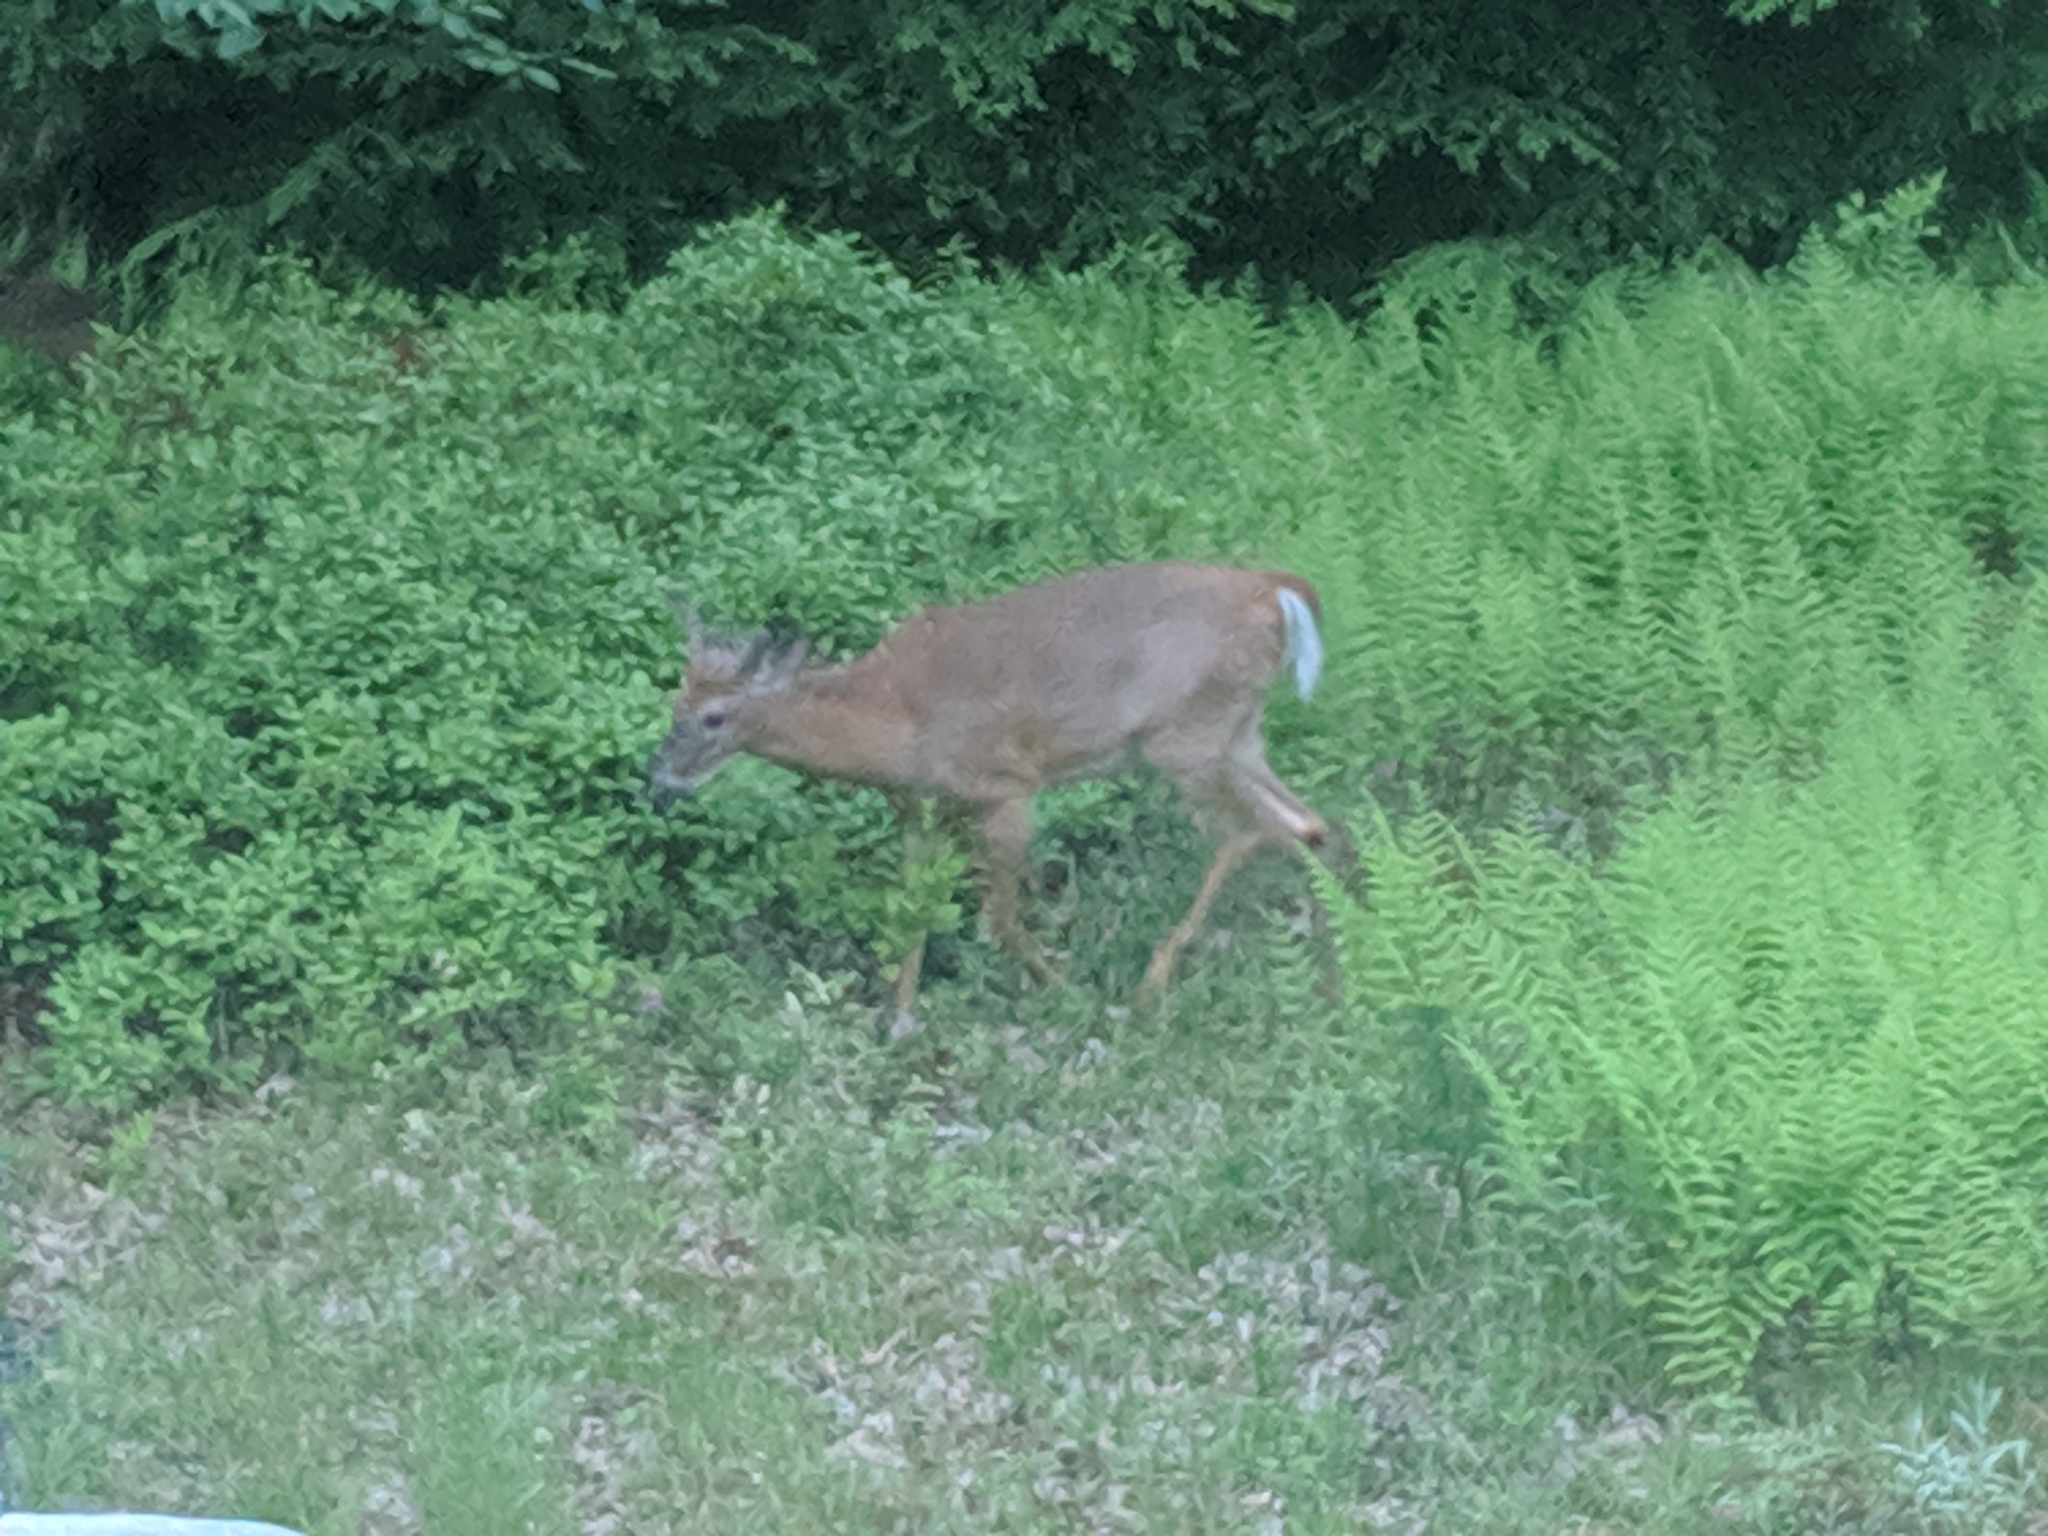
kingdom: Animalia
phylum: Chordata
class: Mammalia
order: Artiodactyla
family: Cervidae
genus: Odocoileus
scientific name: Odocoileus virginianus
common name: White-tailed deer
